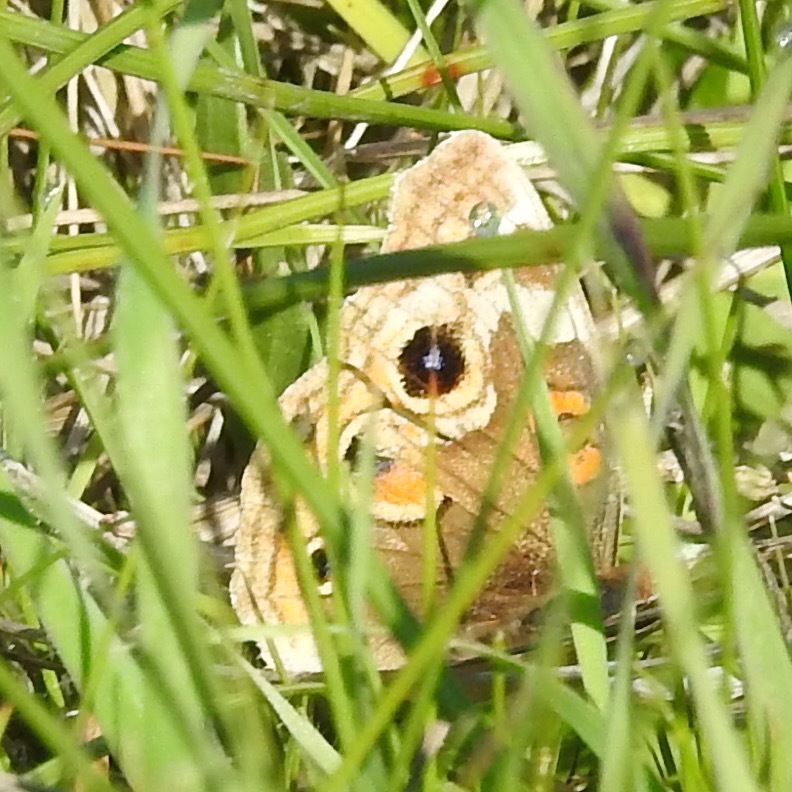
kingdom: Animalia
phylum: Arthropoda
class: Insecta
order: Lepidoptera
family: Nymphalidae
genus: Junonia
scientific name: Junonia grisea
